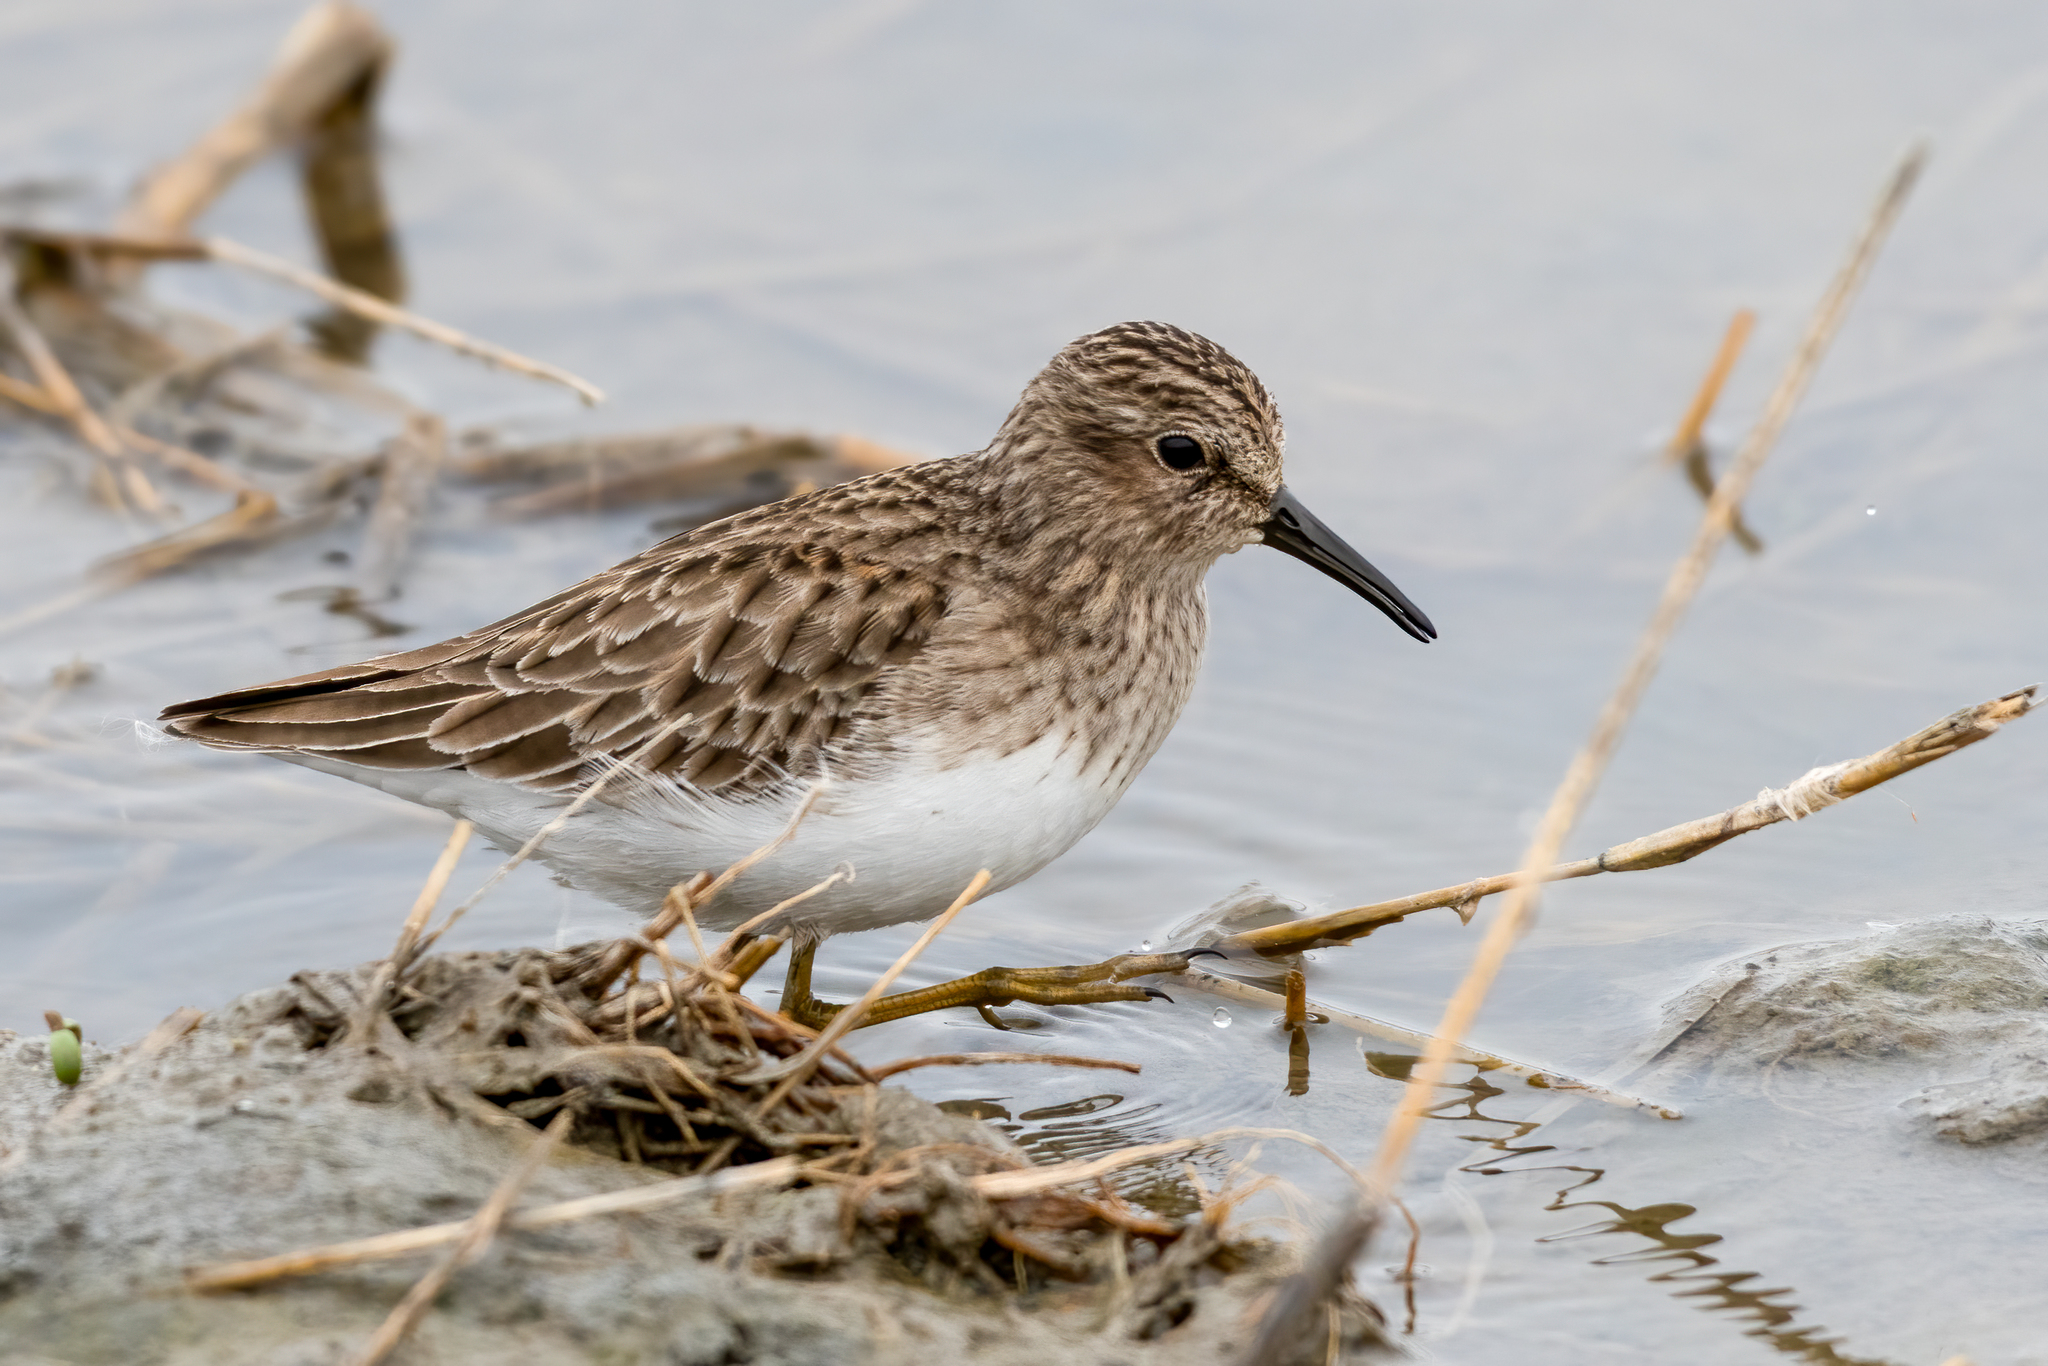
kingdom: Animalia
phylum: Chordata
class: Aves
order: Charadriiformes
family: Scolopacidae
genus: Calidris
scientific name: Calidris minutilla
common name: Least sandpiper
